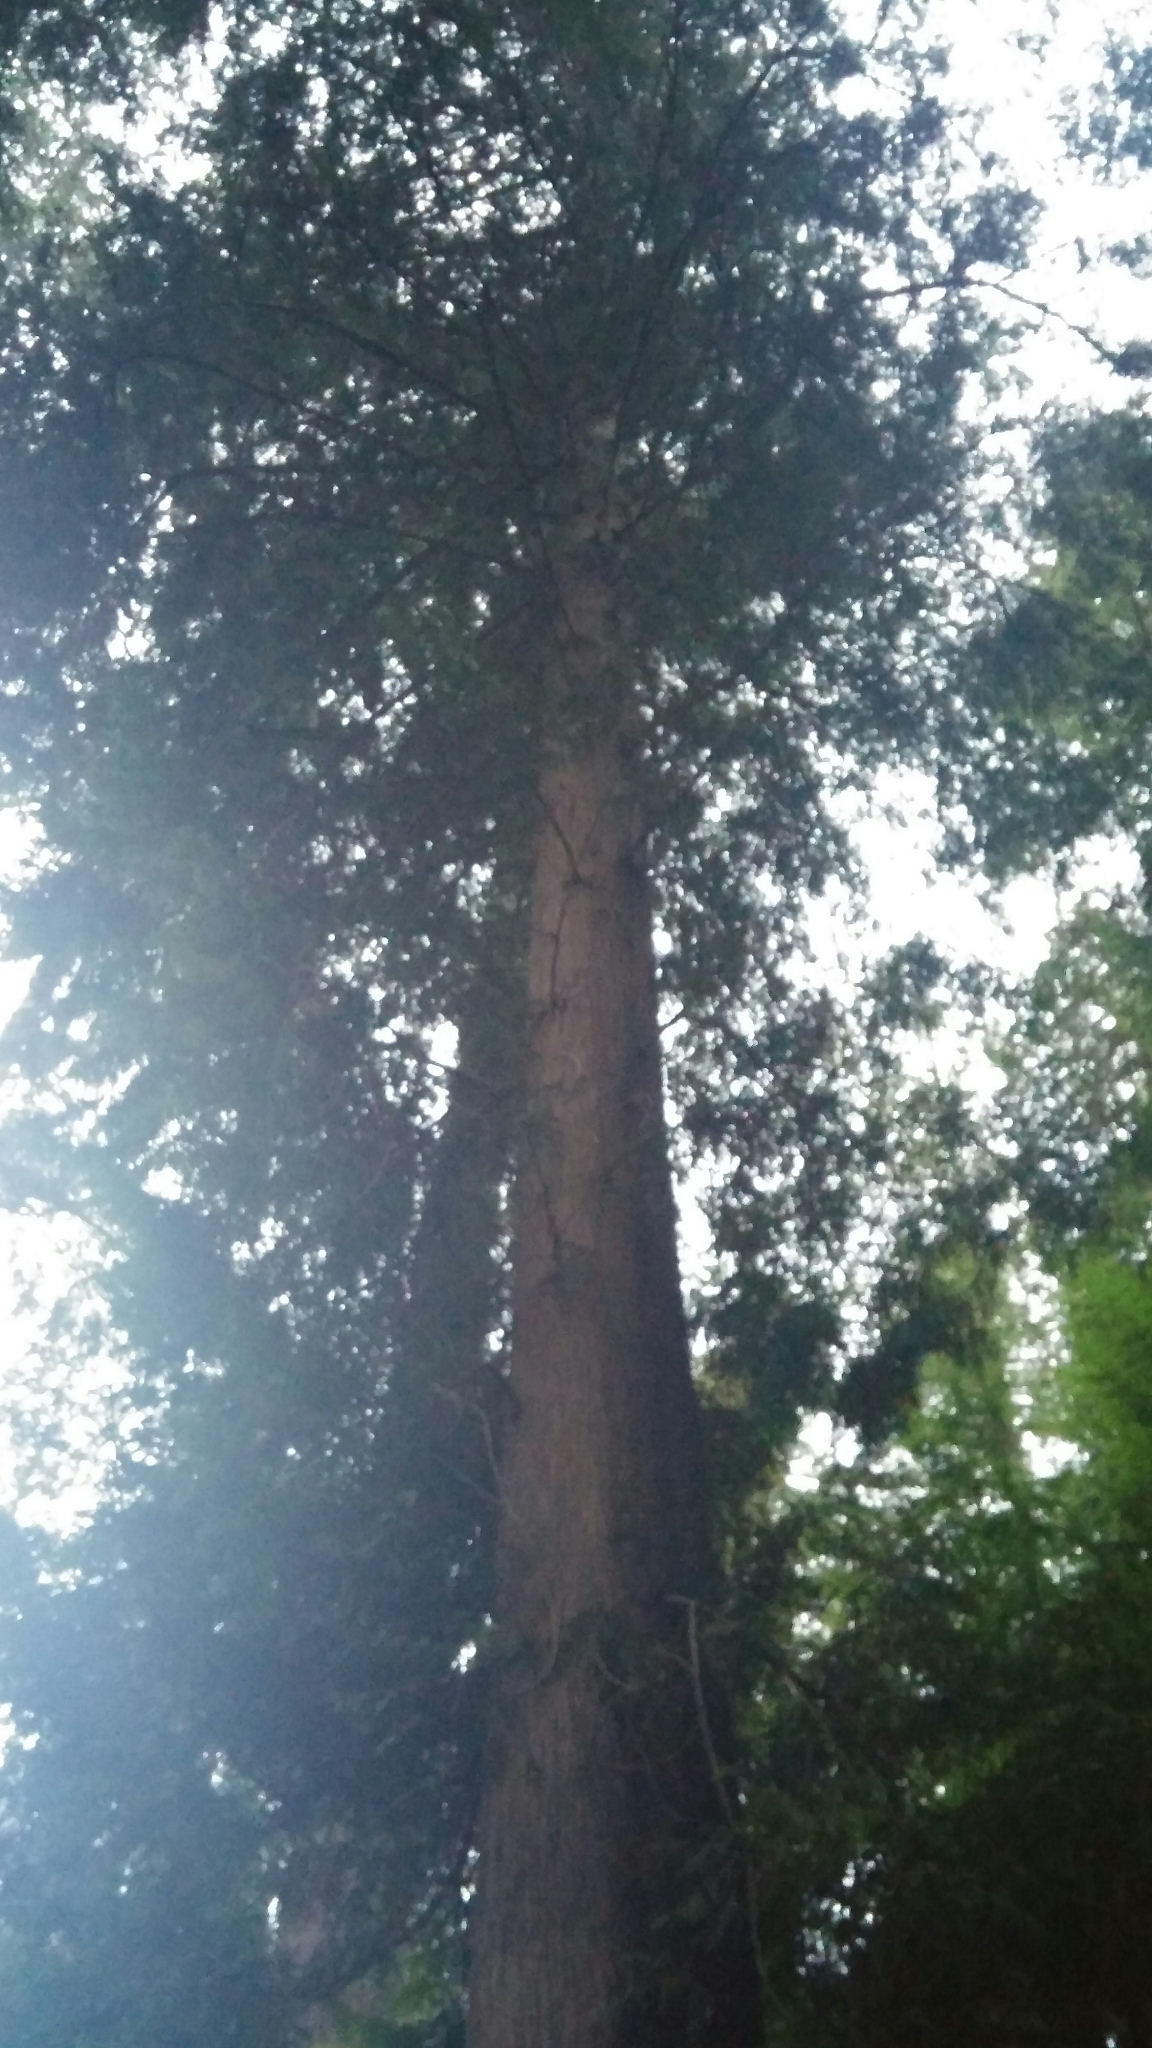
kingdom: Plantae
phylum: Tracheophyta
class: Pinopsida
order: Pinales
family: Cupressaceae
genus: Thuja
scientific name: Thuja plicata
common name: Western red-cedar
